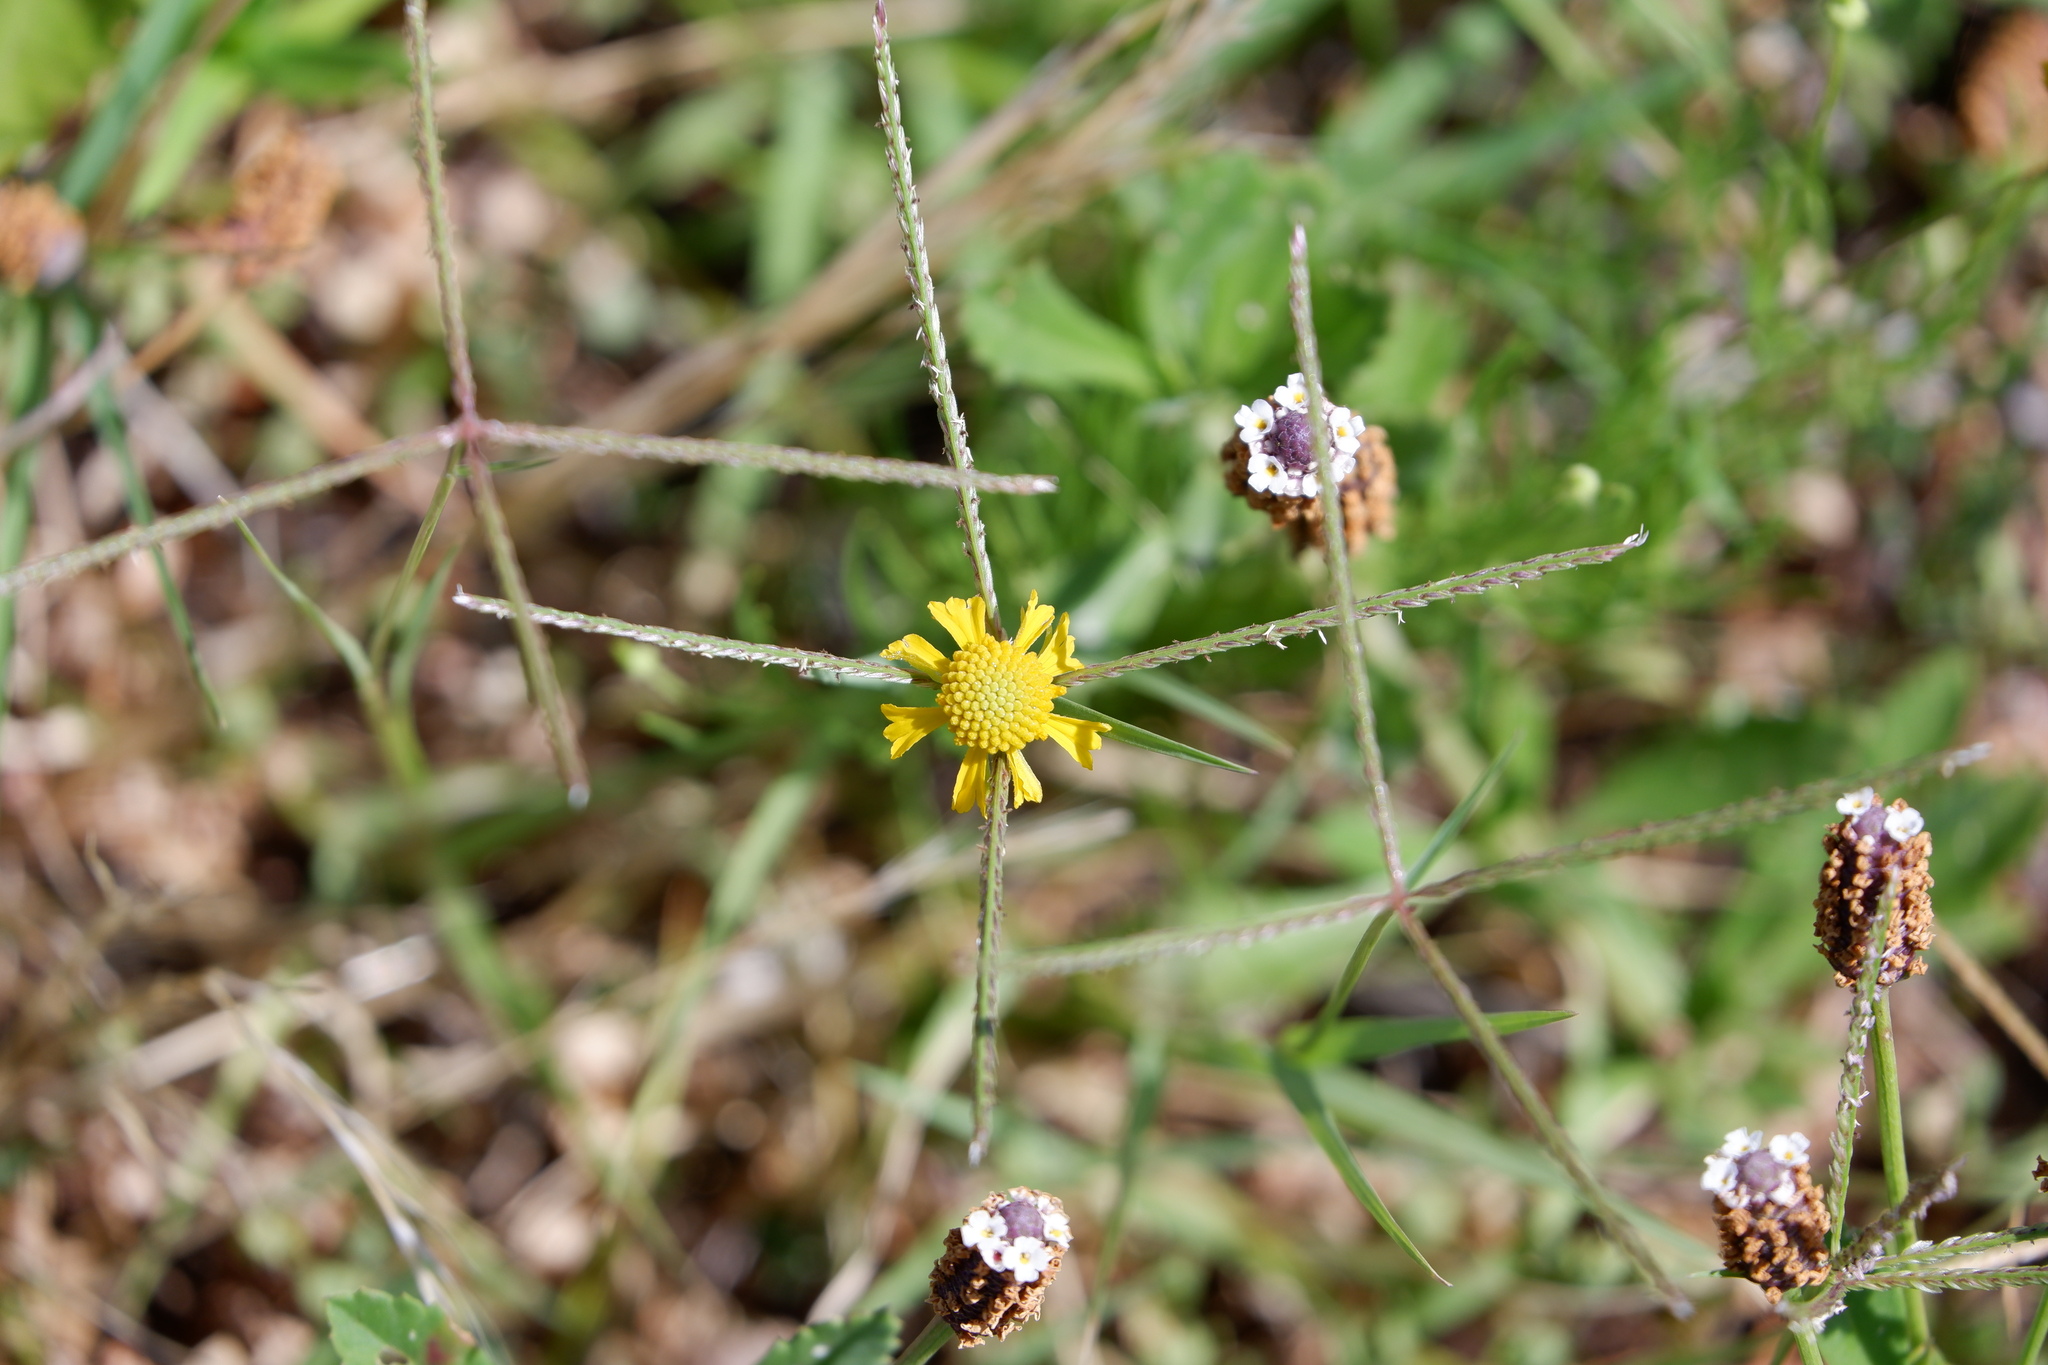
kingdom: Plantae
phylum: Tracheophyta
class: Magnoliopsida
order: Asterales
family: Asteraceae
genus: Helenium
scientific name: Helenium amarum
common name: Bitter sneezeweed
